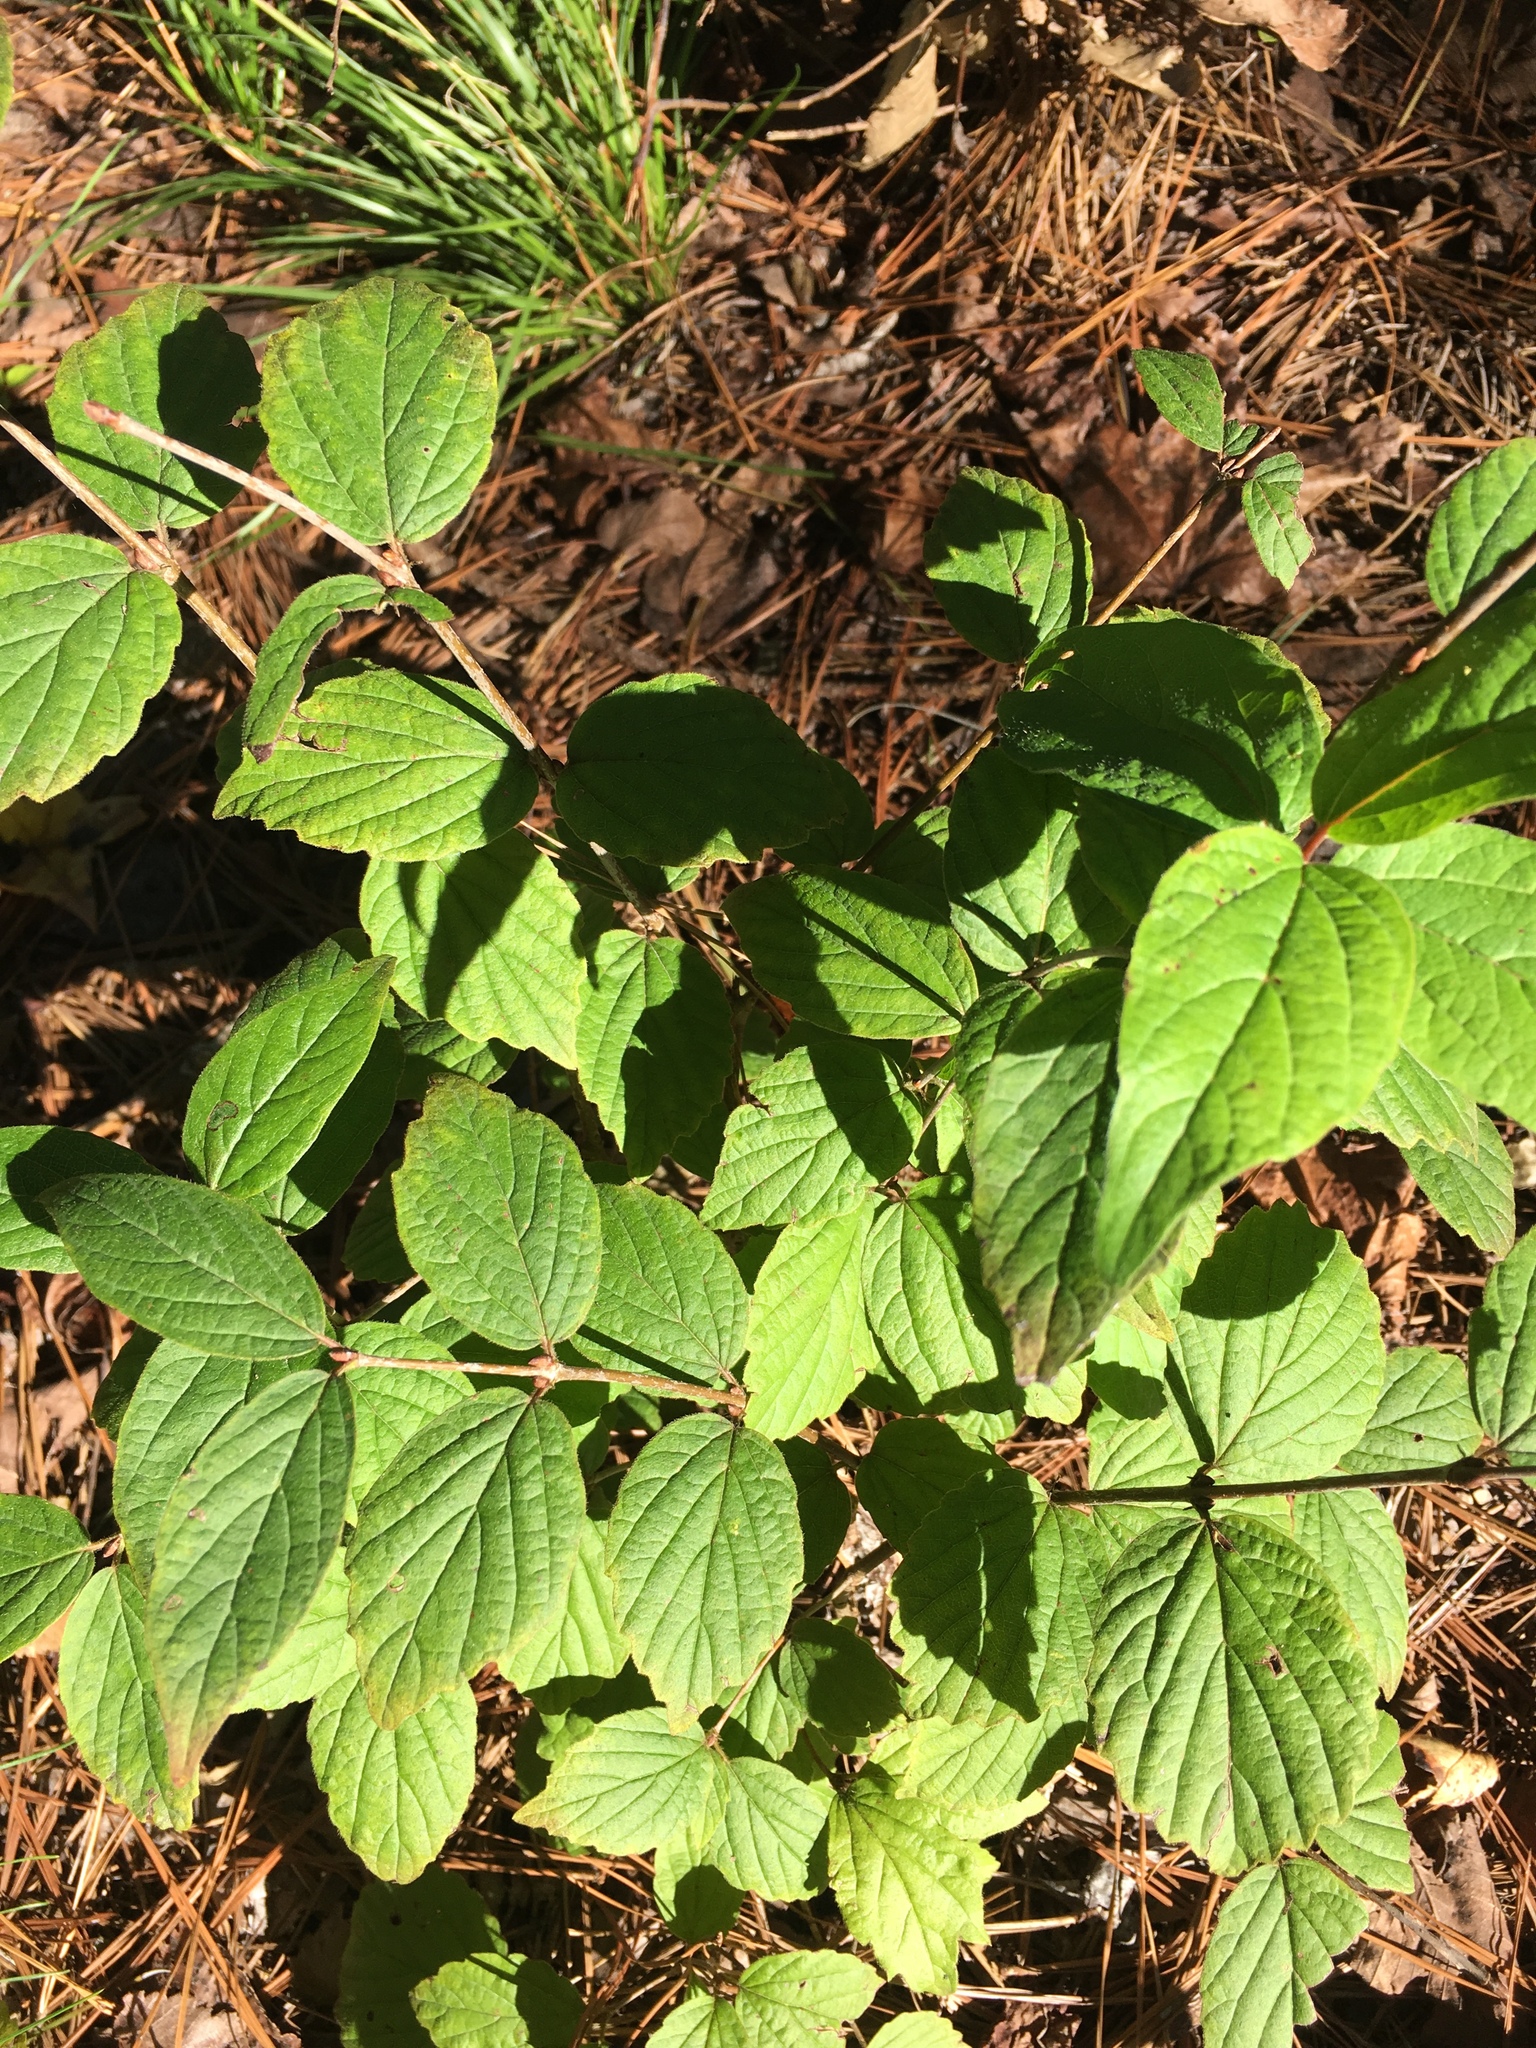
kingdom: Plantae
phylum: Tracheophyta
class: Magnoliopsida
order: Dipsacales
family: Viburnaceae
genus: Viburnum
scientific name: Viburnum rafinesqueanum
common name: Downy arrow-wood
